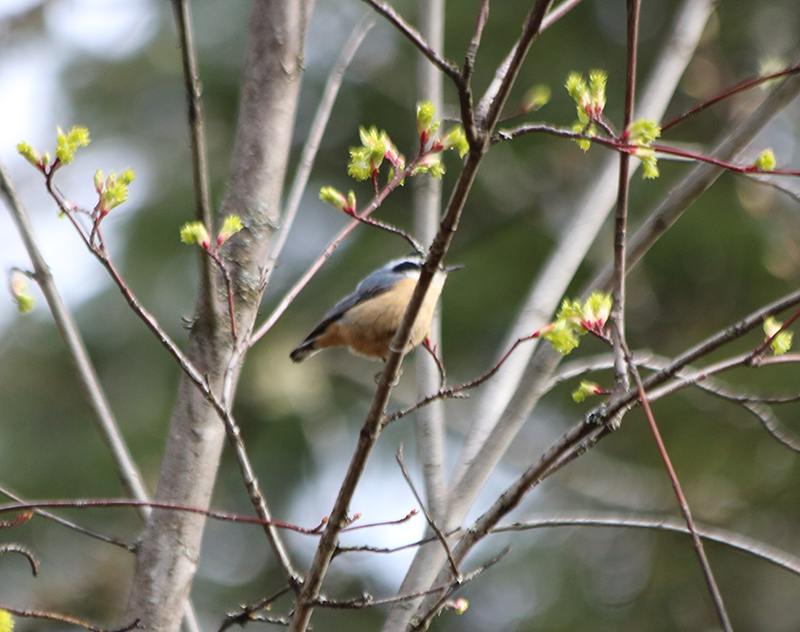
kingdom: Animalia
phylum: Chordata
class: Aves
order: Passeriformes
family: Sittidae
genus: Sitta
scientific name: Sitta canadensis
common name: Red-breasted nuthatch
